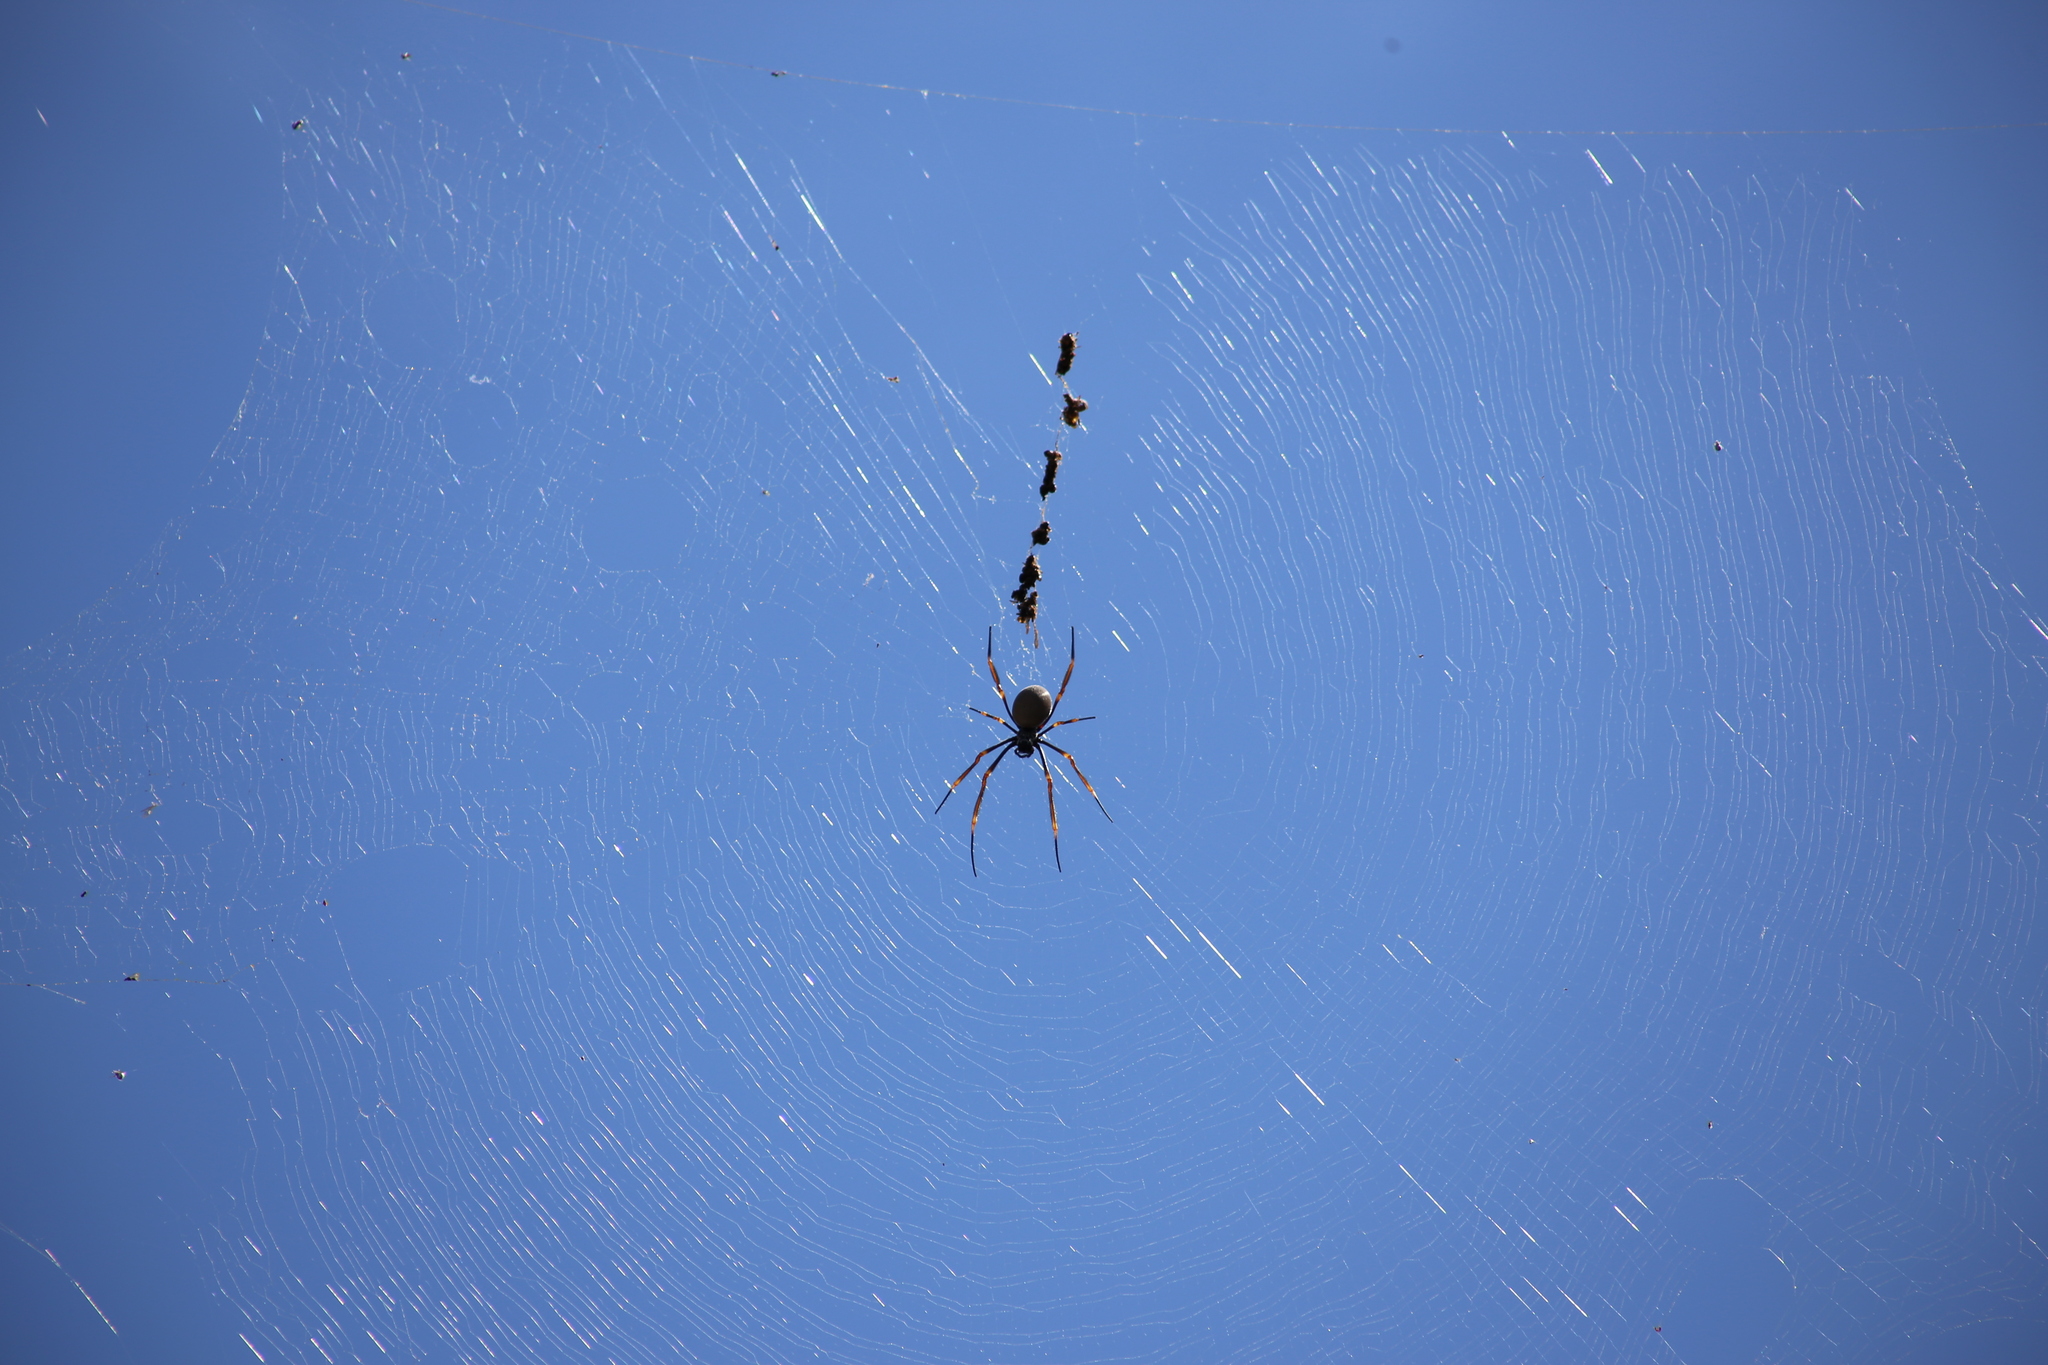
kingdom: Animalia
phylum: Arthropoda
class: Arachnida
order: Araneae
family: Araneidae
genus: Trichonephila
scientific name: Trichonephila plumipes
